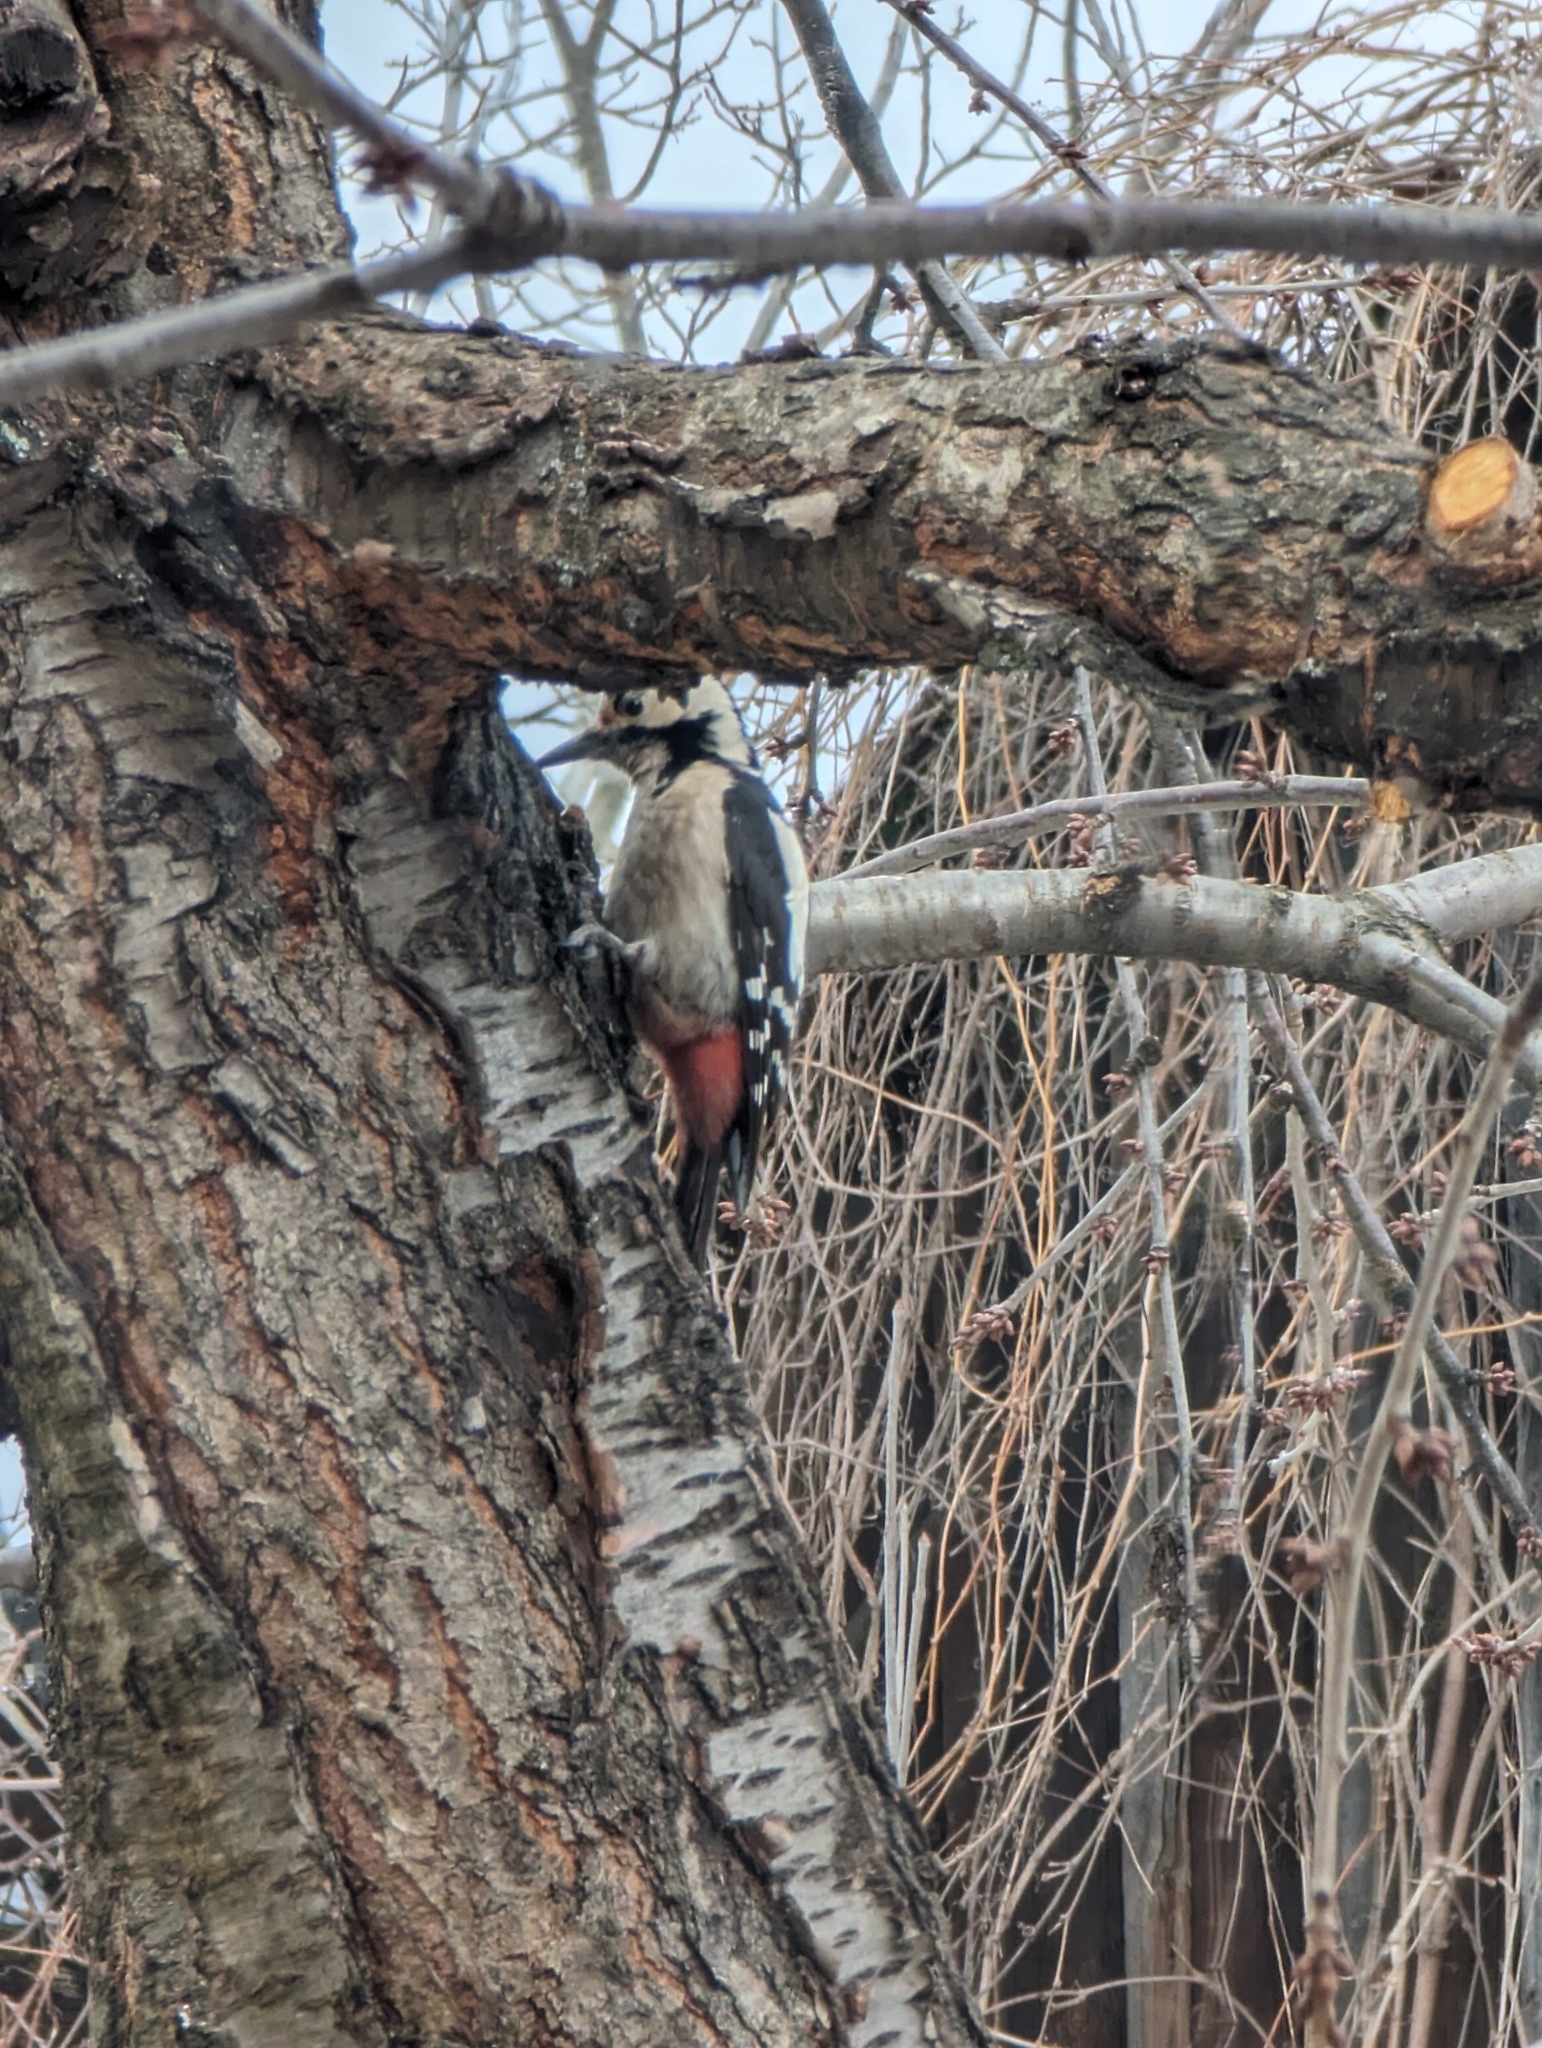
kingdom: Animalia
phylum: Chordata
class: Aves
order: Piciformes
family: Picidae
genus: Dendrocopos
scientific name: Dendrocopos syriacus
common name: Syrian woodpecker
